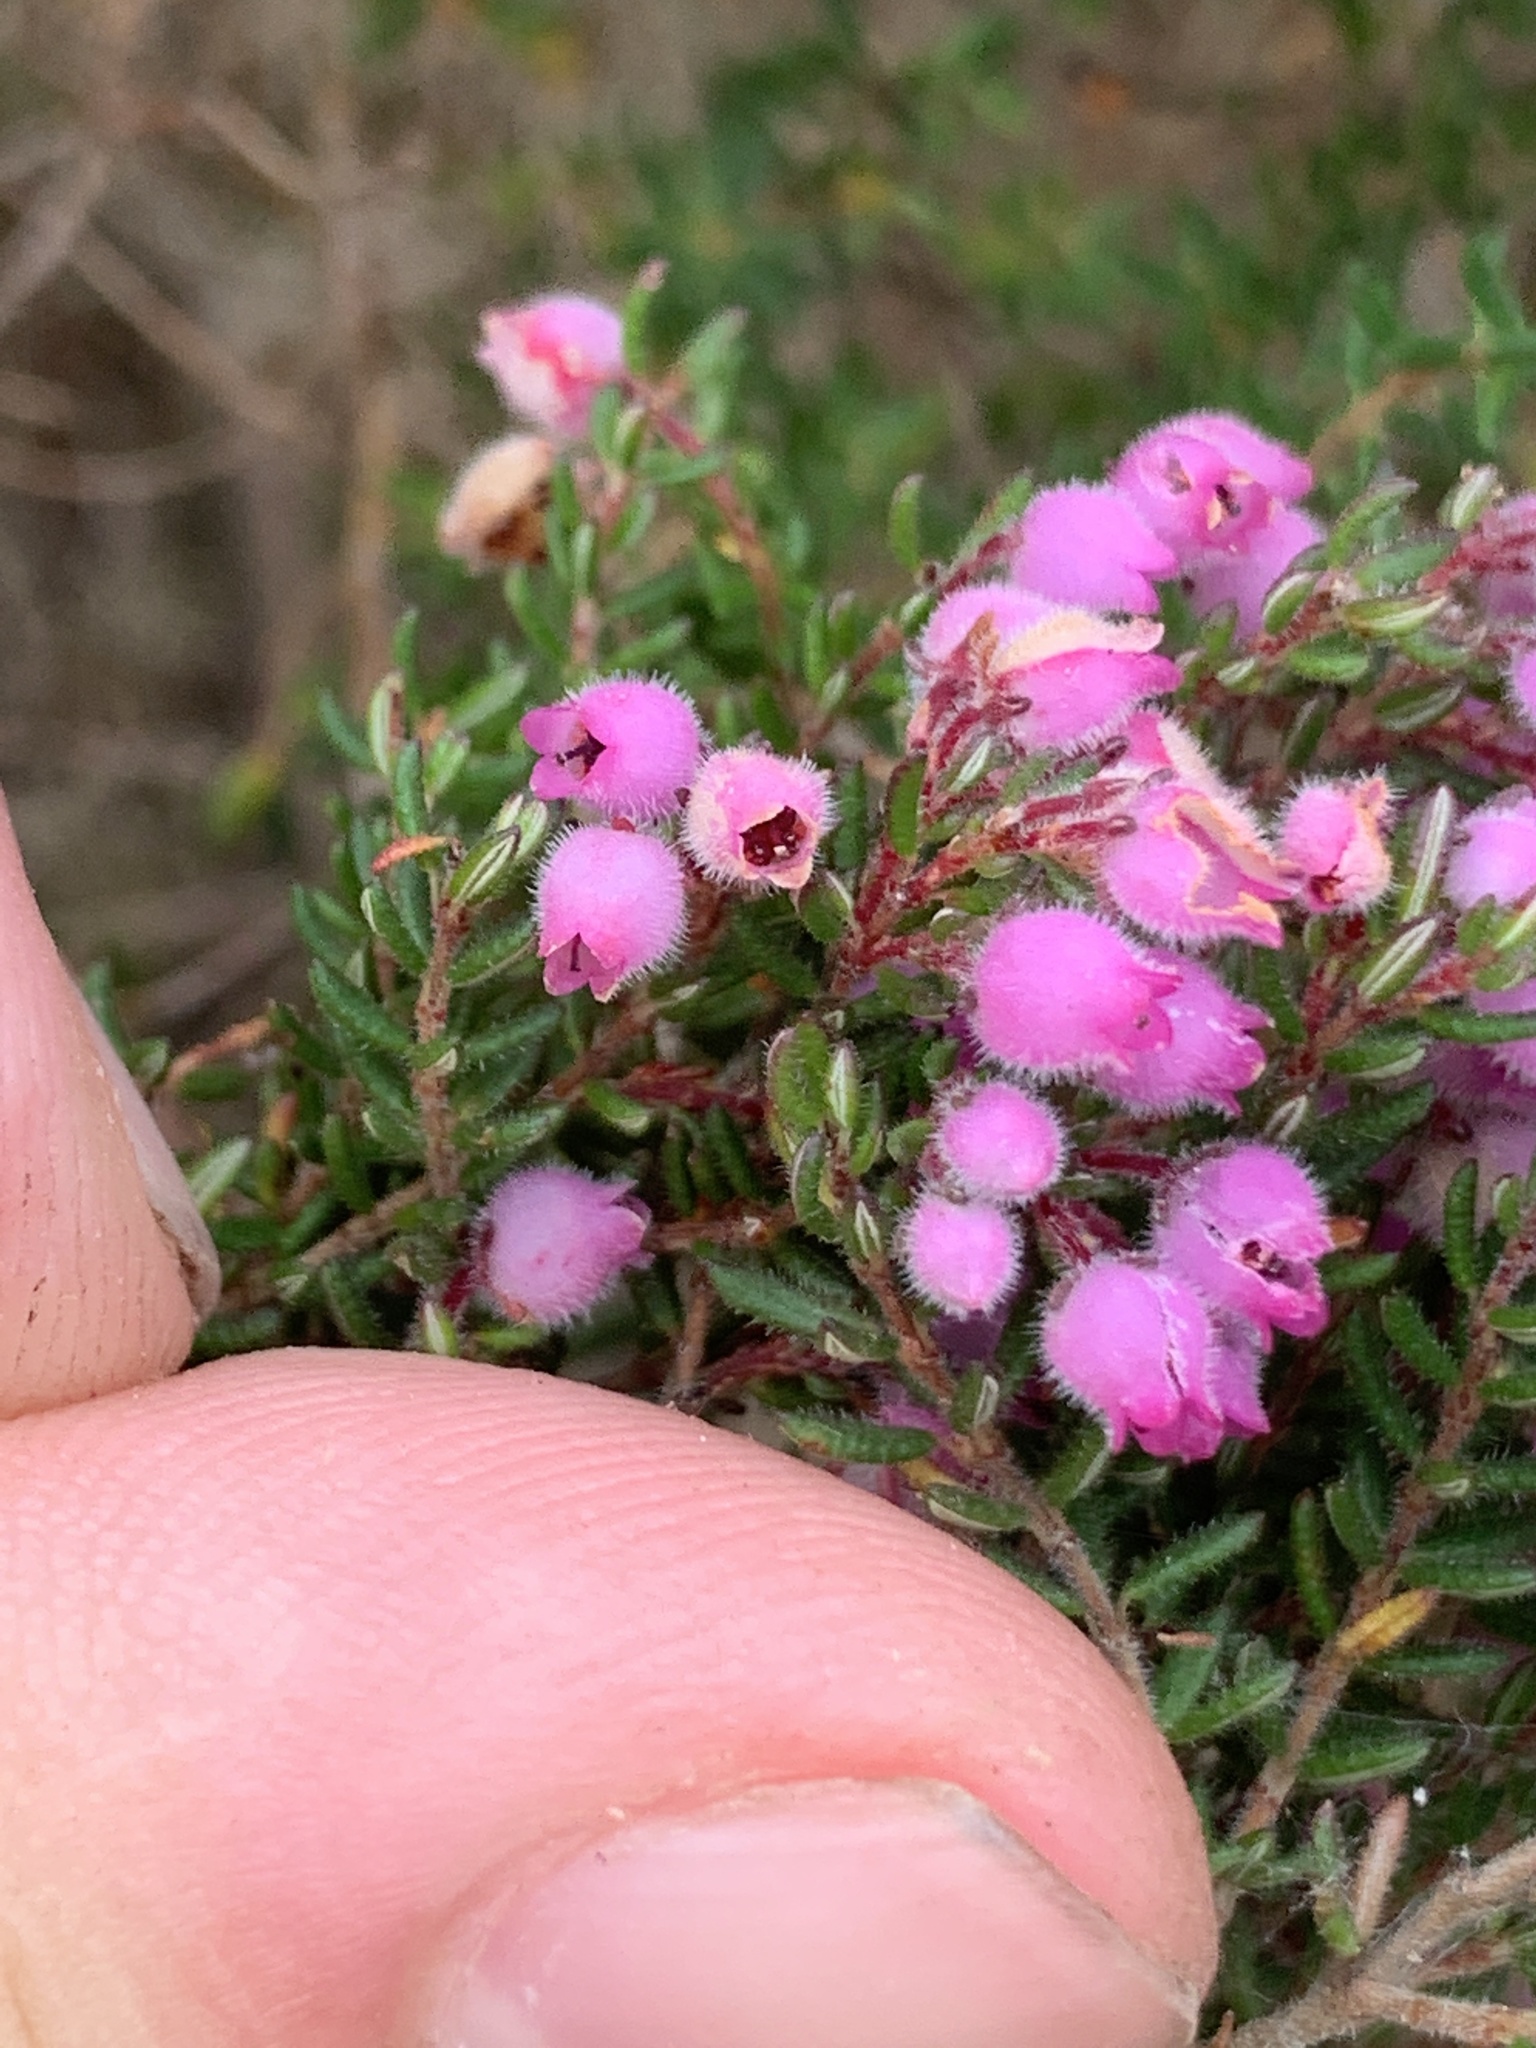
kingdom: Plantae
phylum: Tracheophyta
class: Magnoliopsida
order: Ericales
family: Ericaceae
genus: Erica
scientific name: Erica hirtiflora
